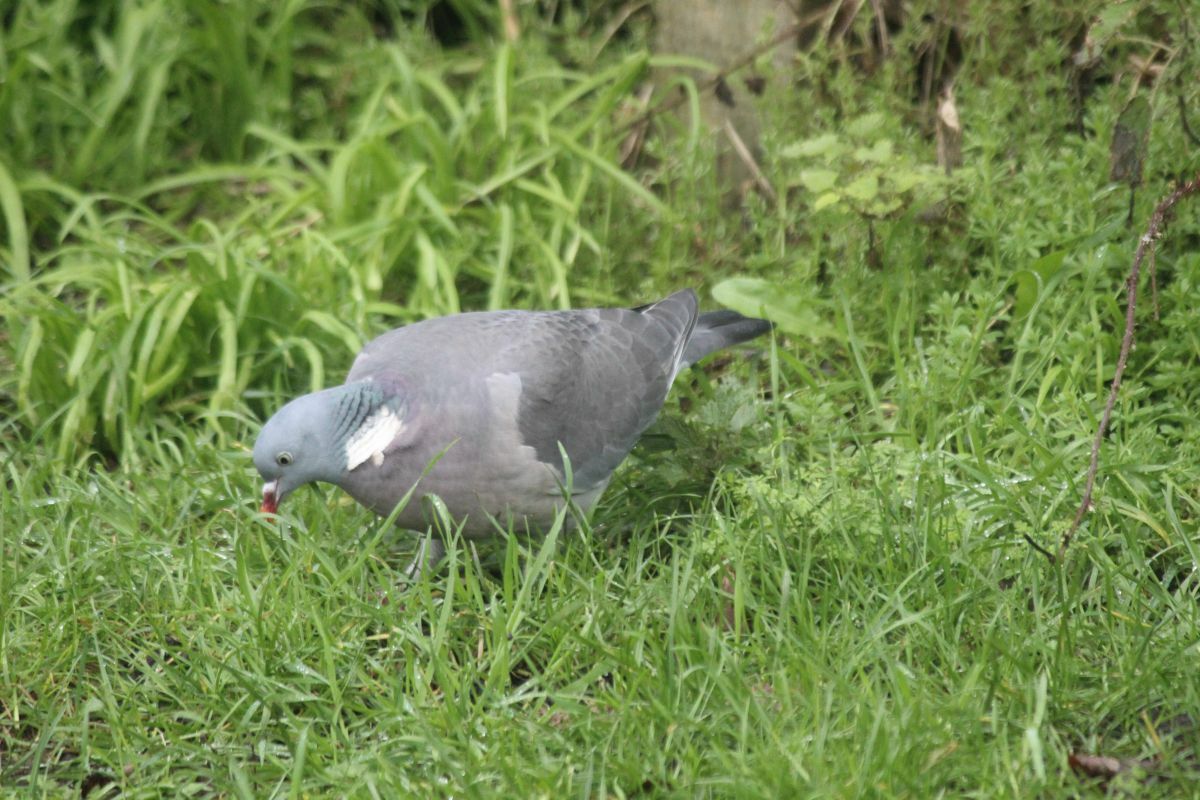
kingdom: Animalia
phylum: Chordata
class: Aves
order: Columbiformes
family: Columbidae
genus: Columba
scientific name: Columba palumbus
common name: Common wood pigeon
